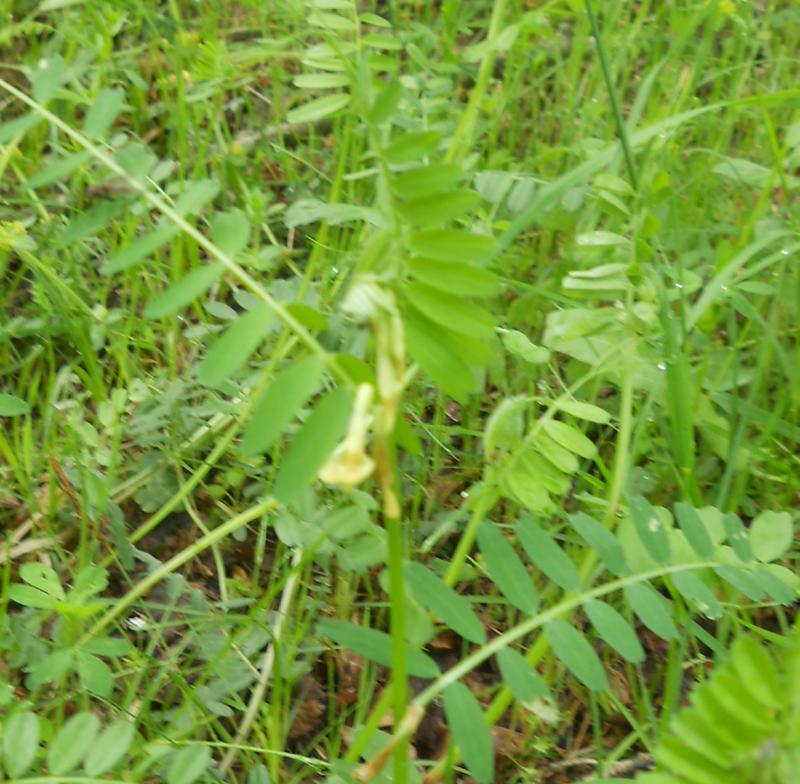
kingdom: Plantae
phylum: Tracheophyta
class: Magnoliopsida
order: Fabales
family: Fabaceae
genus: Vicia
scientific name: Vicia lutea
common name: Smooth yellow vetch
